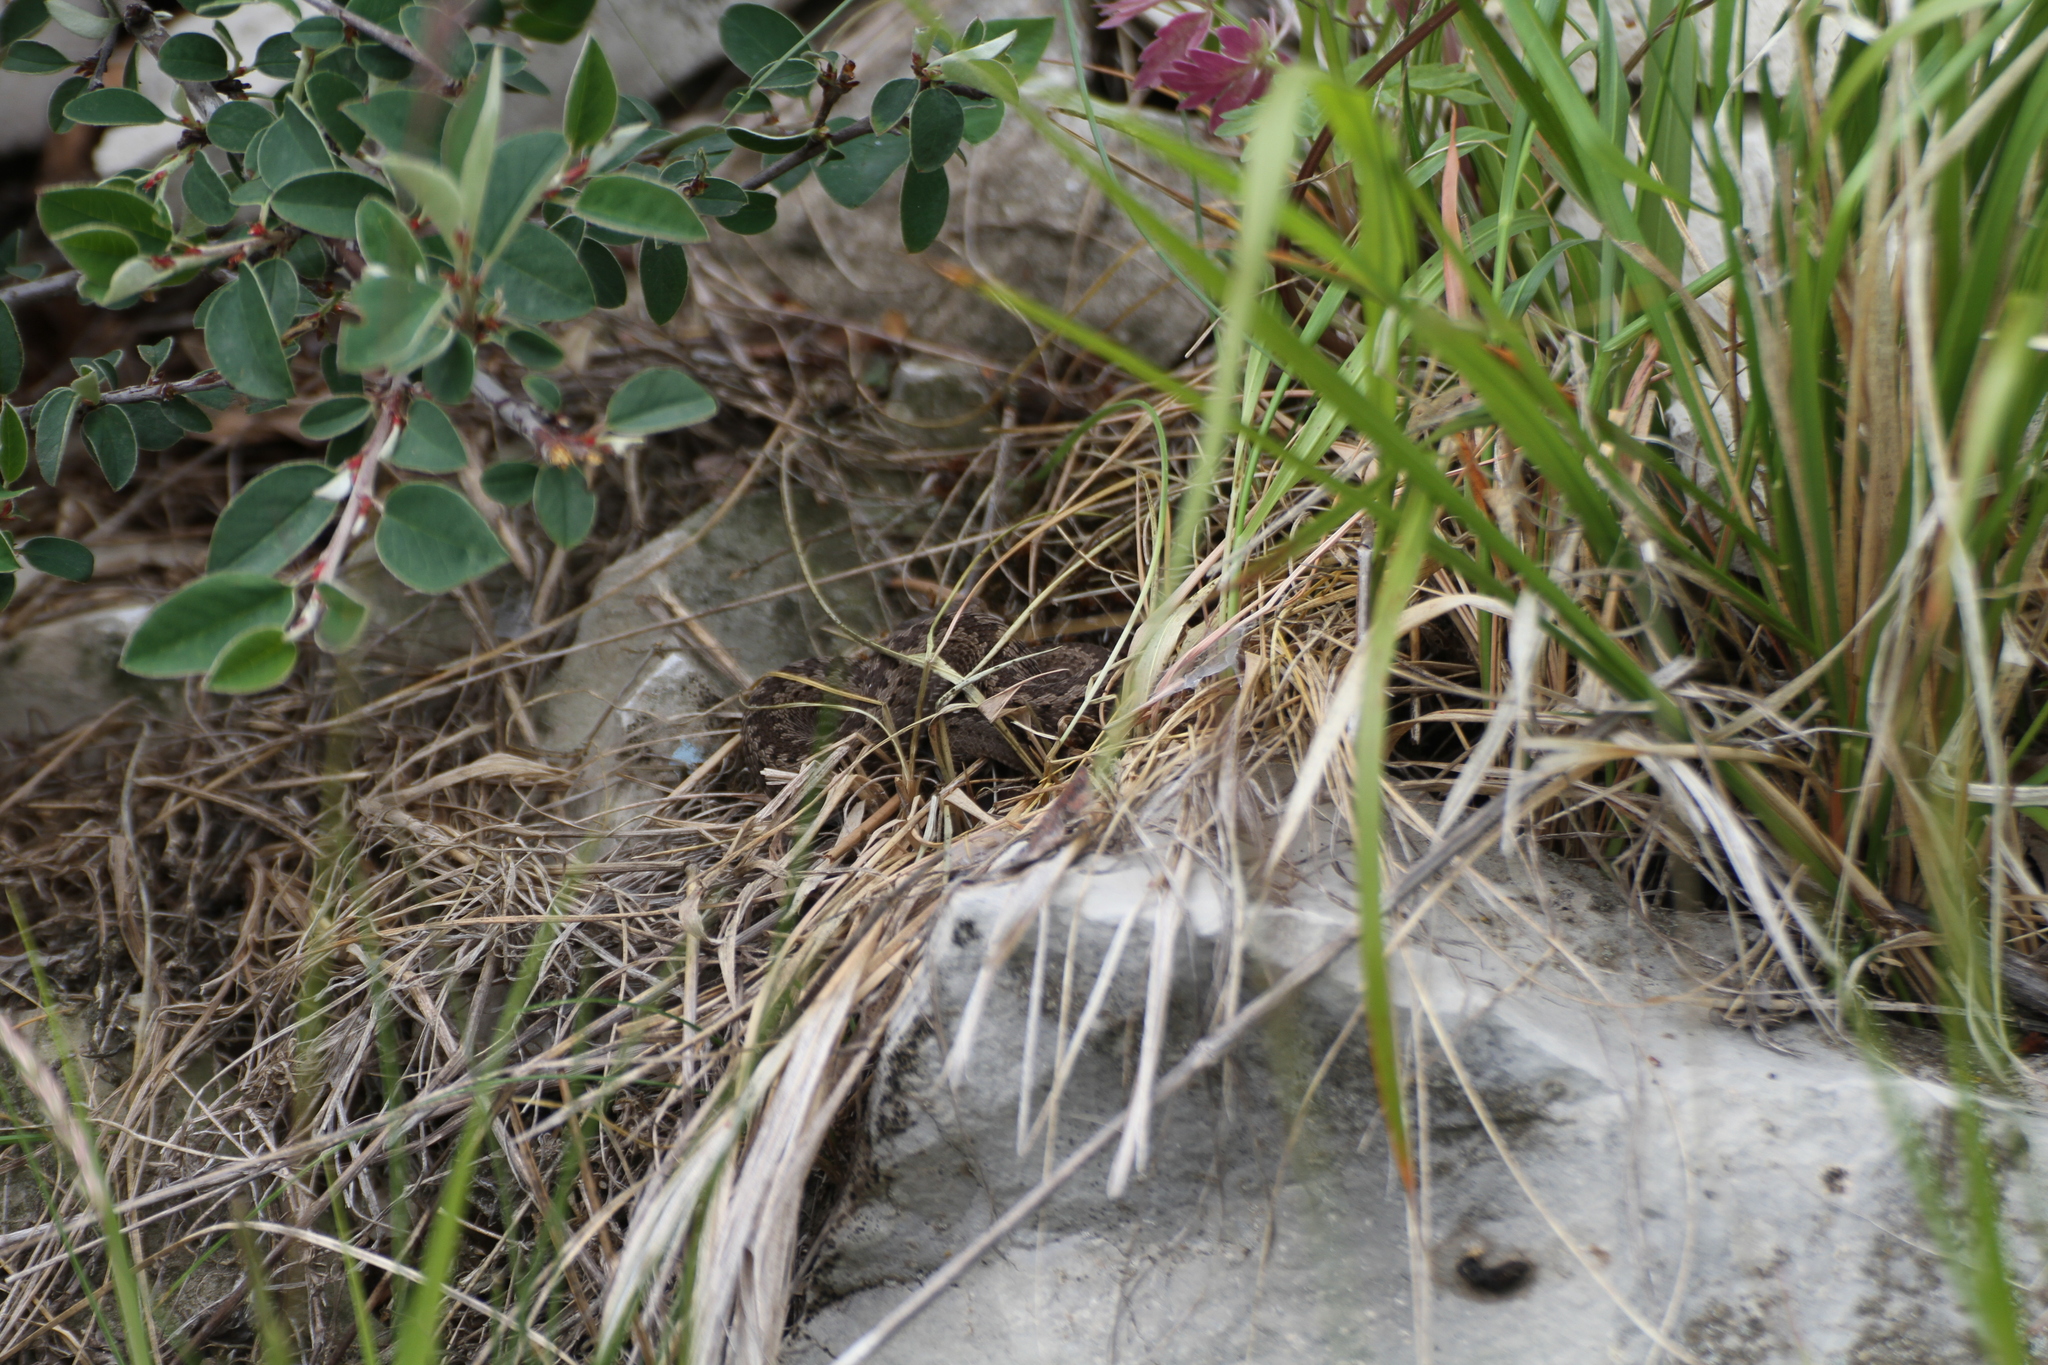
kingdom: Animalia
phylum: Chordata
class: Squamata
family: Viperidae
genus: Vipera
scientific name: Vipera ursinii
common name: Meadow viper
